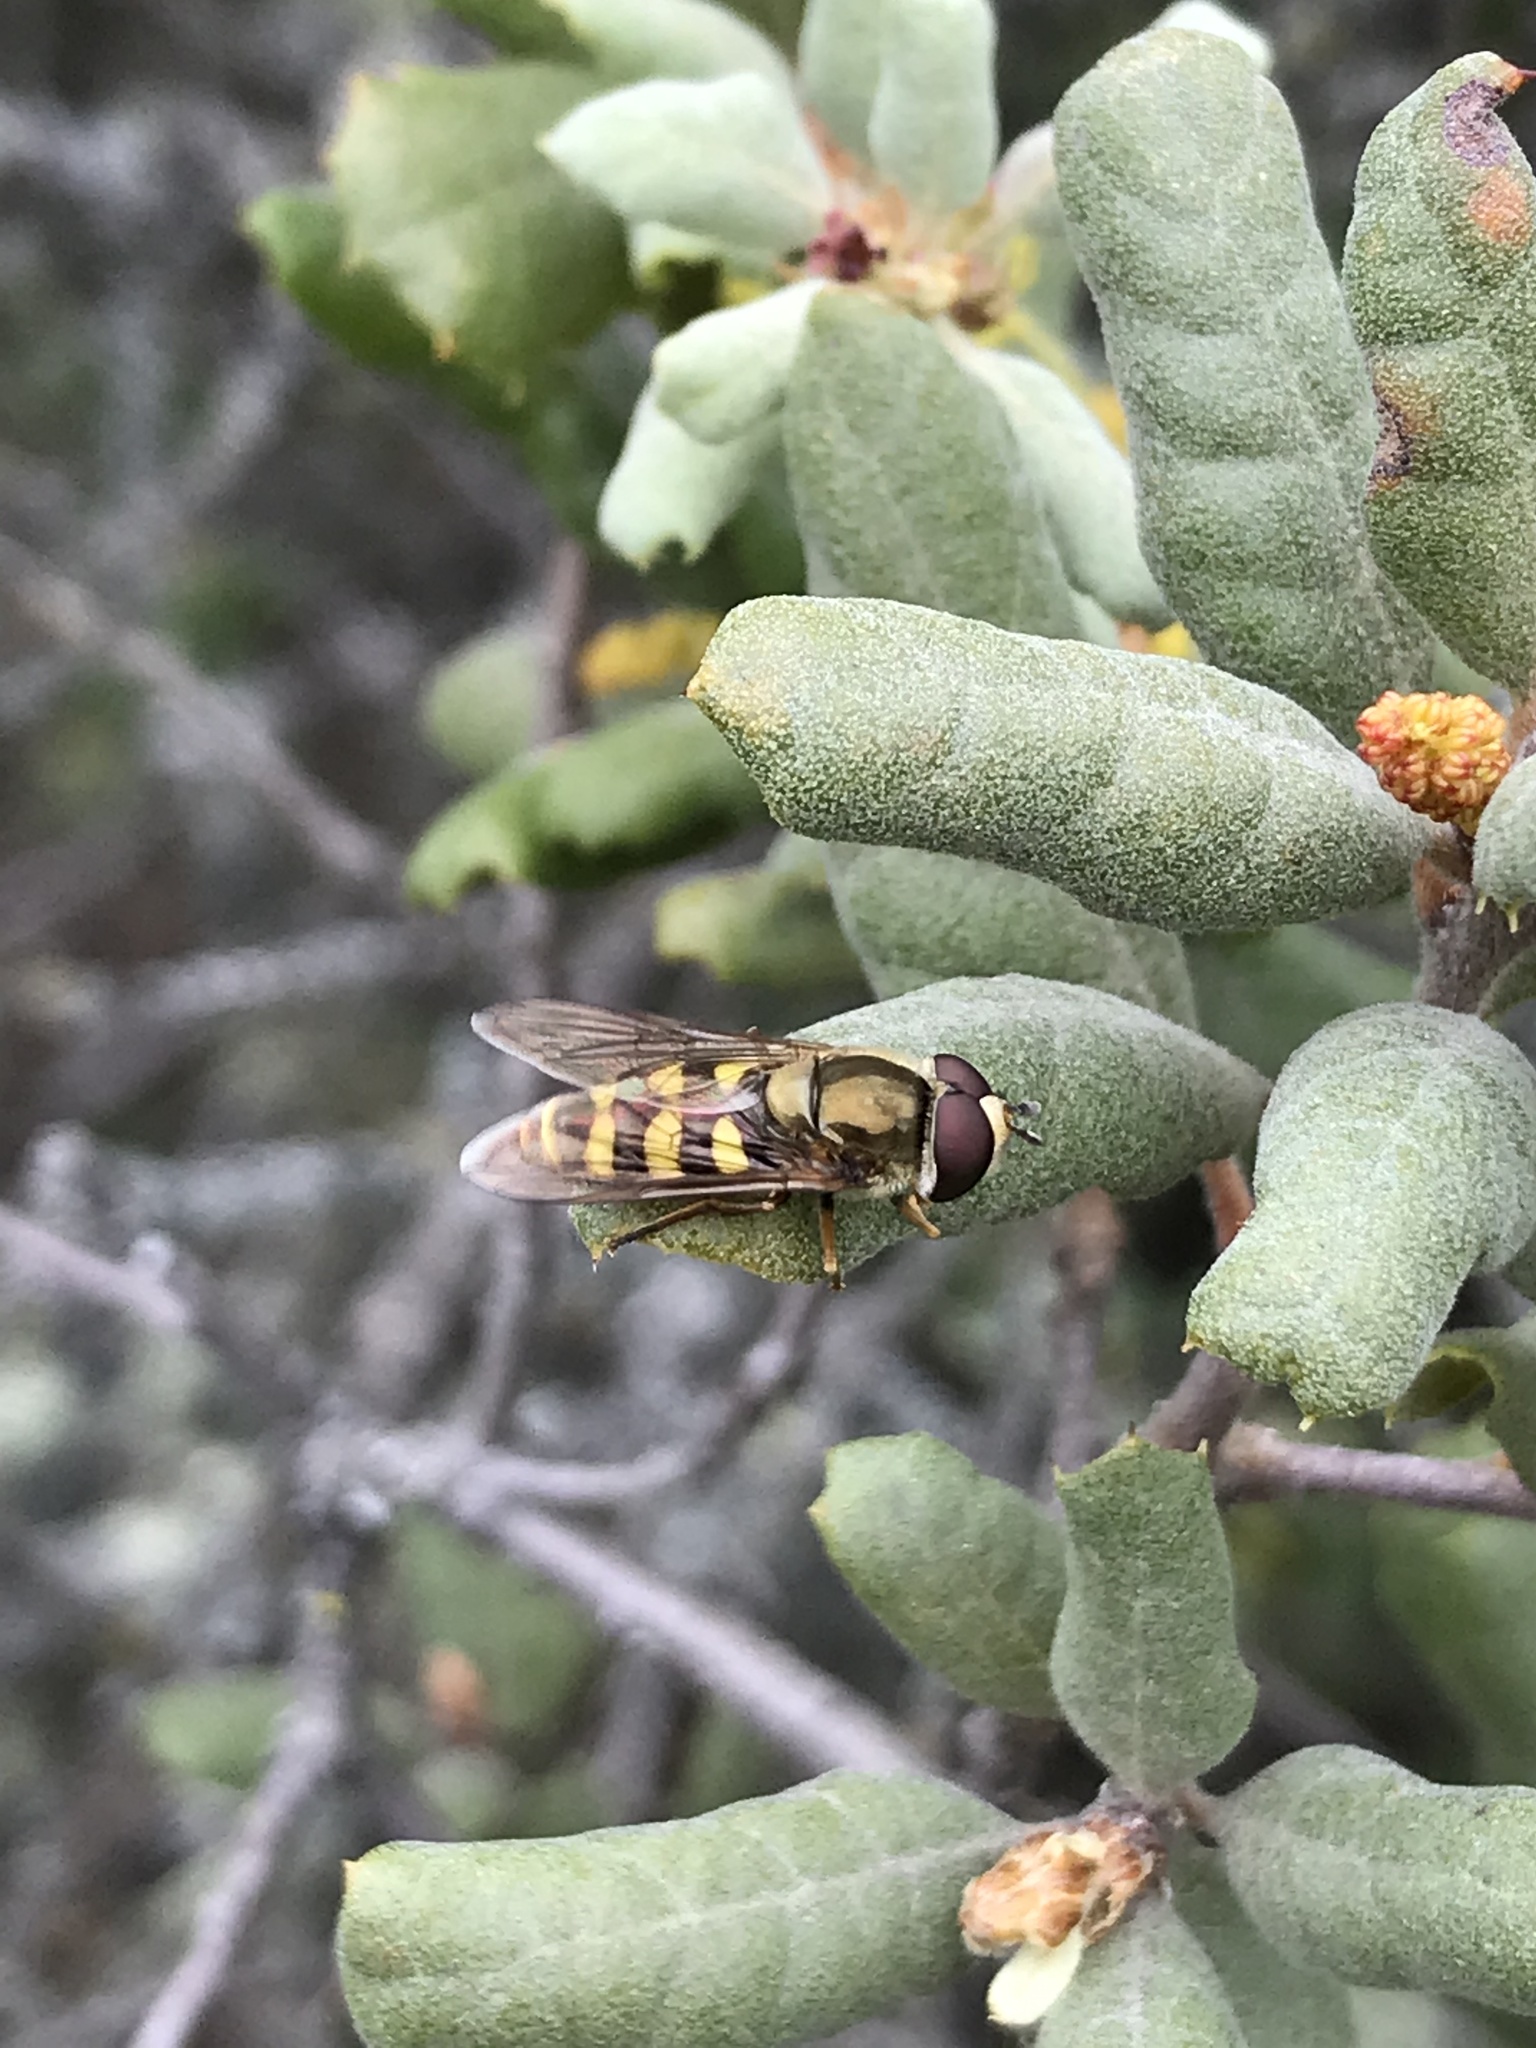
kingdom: Animalia
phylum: Arthropoda
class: Insecta
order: Diptera
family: Syrphidae
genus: Eupeodes
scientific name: Eupeodes fumipennis
